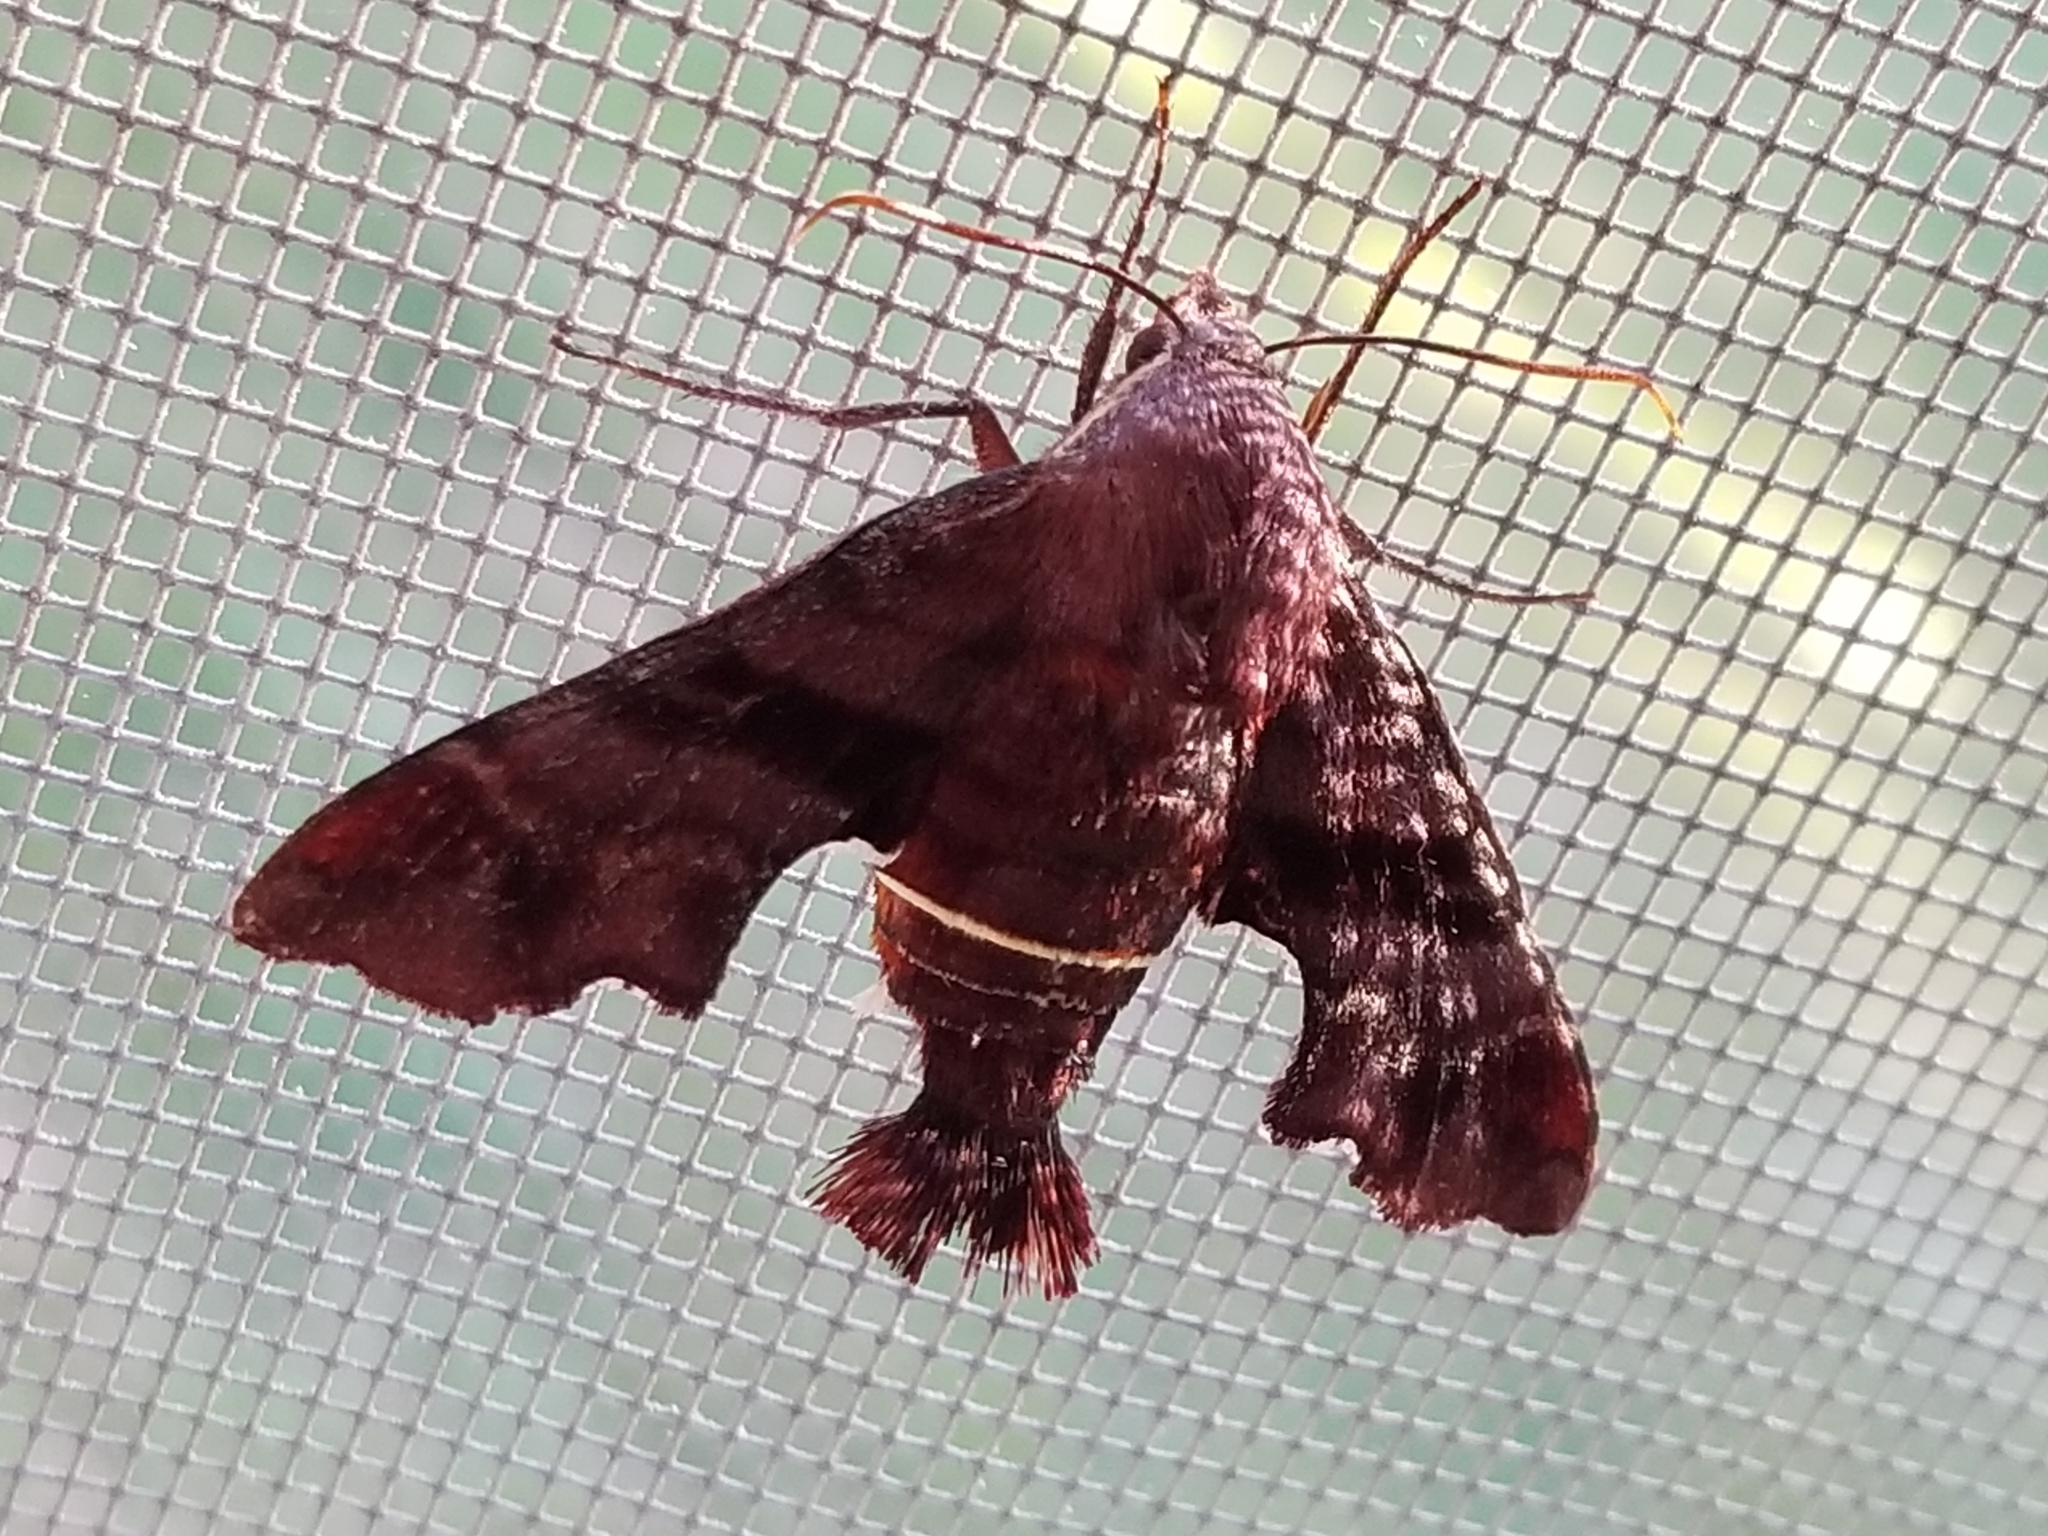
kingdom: Animalia
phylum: Arthropoda
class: Insecta
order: Lepidoptera
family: Sphingidae
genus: Amphion
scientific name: Amphion floridensis
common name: Nessus sphinx
